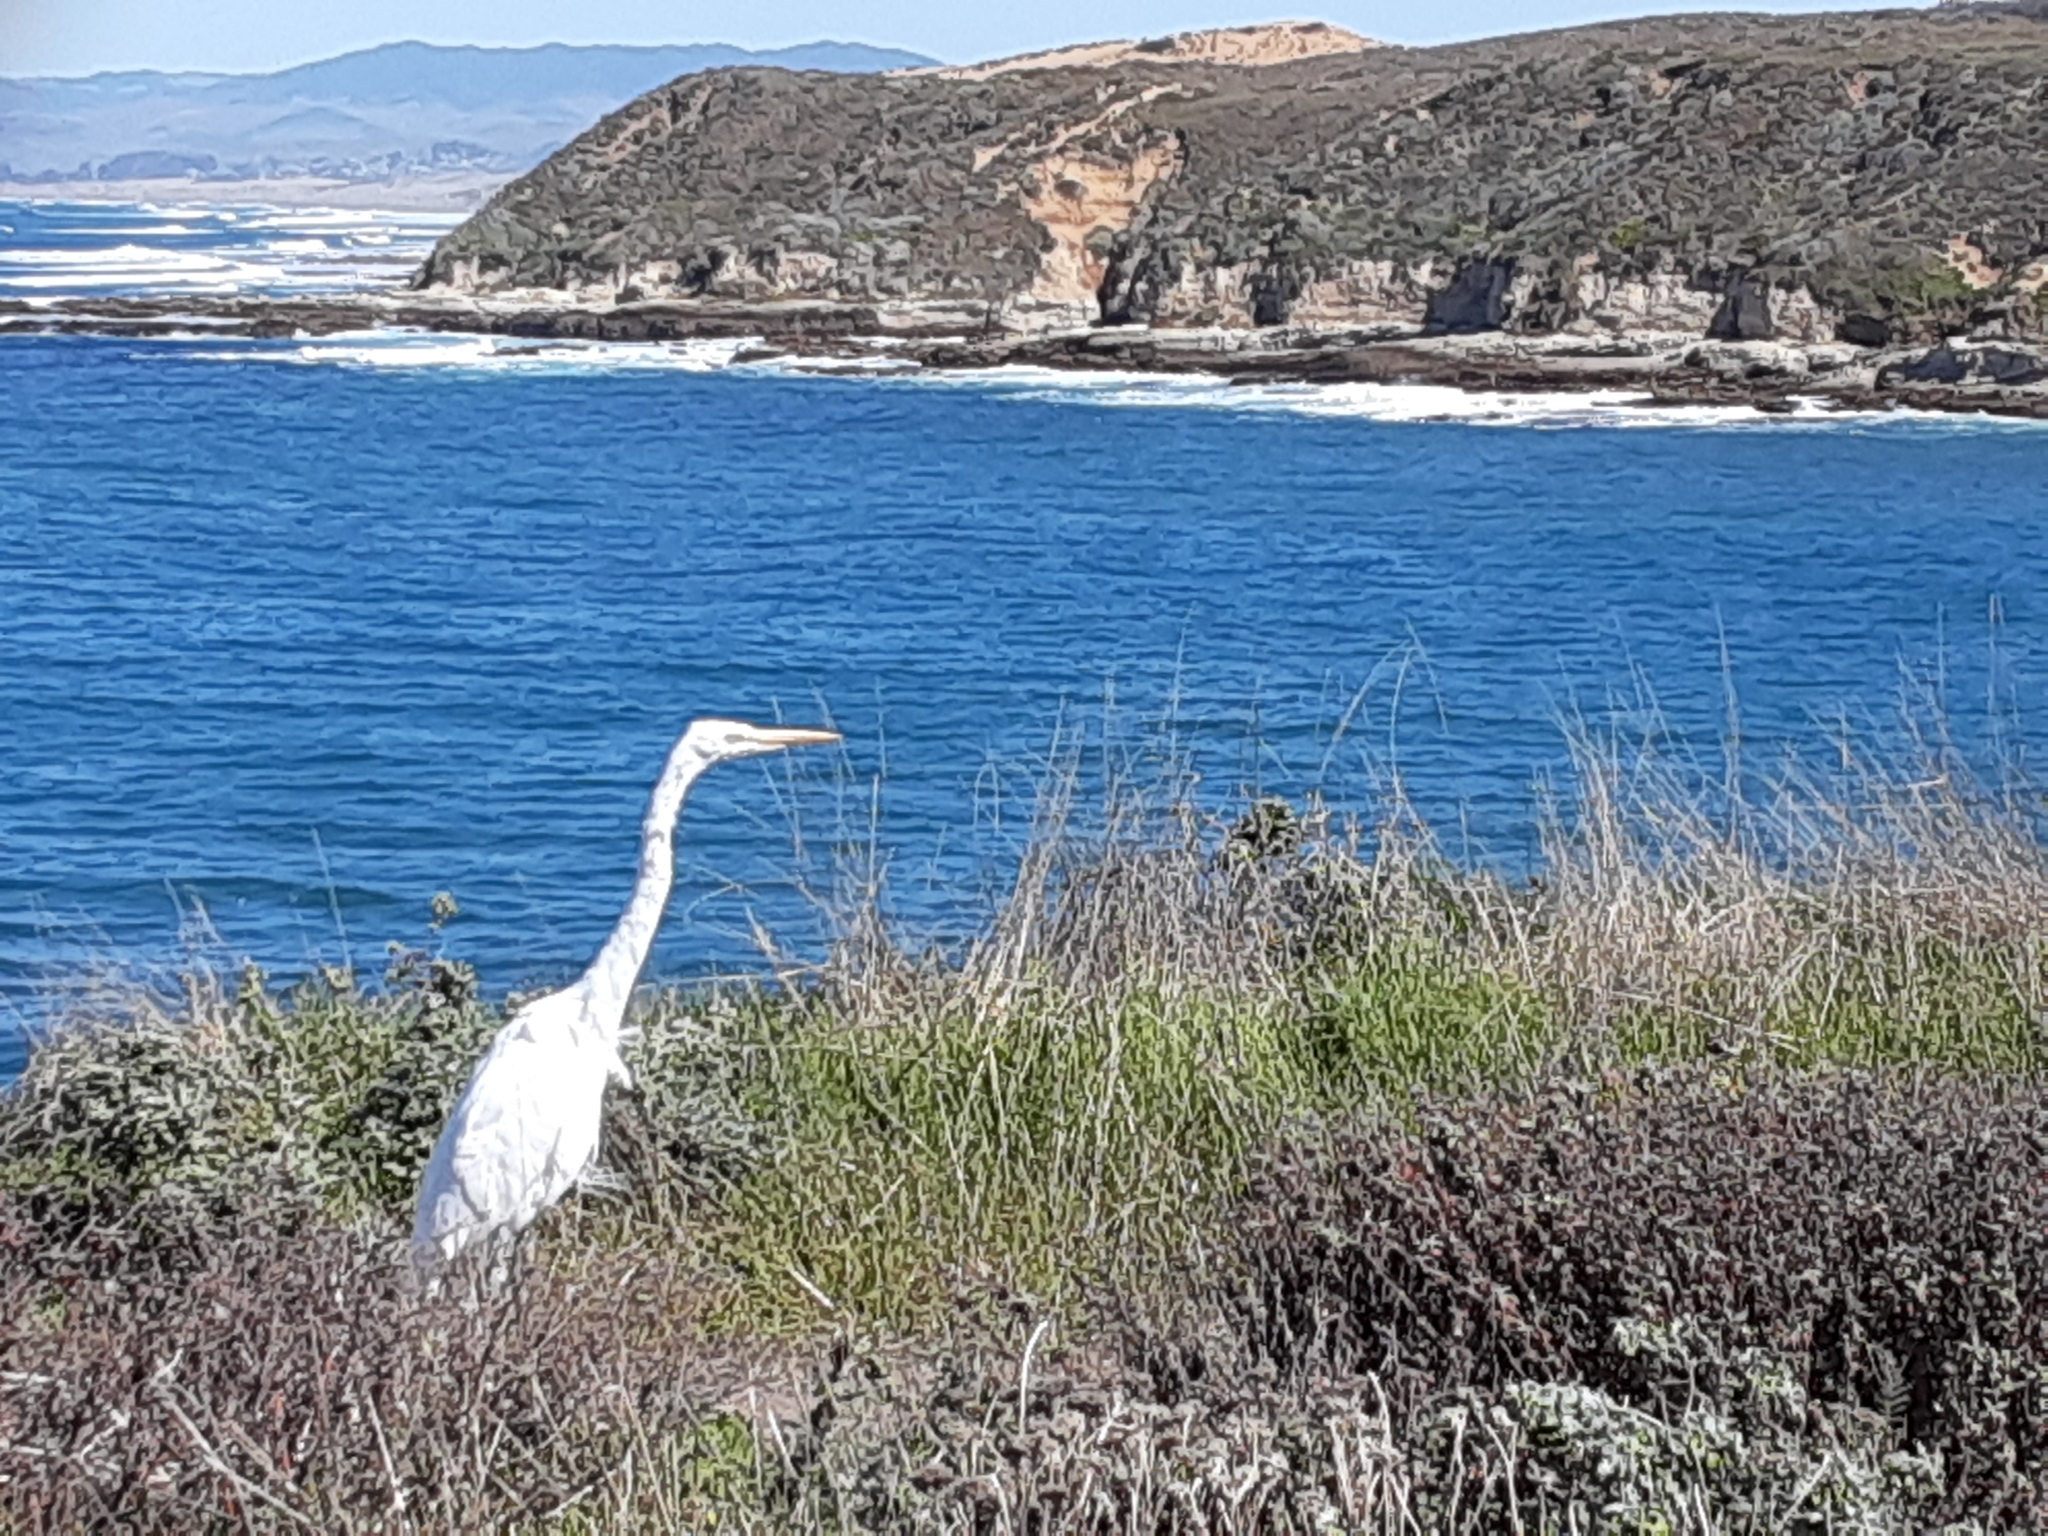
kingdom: Animalia
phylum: Chordata
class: Aves
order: Pelecaniformes
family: Ardeidae
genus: Ardea
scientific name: Ardea alba
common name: Great egret
